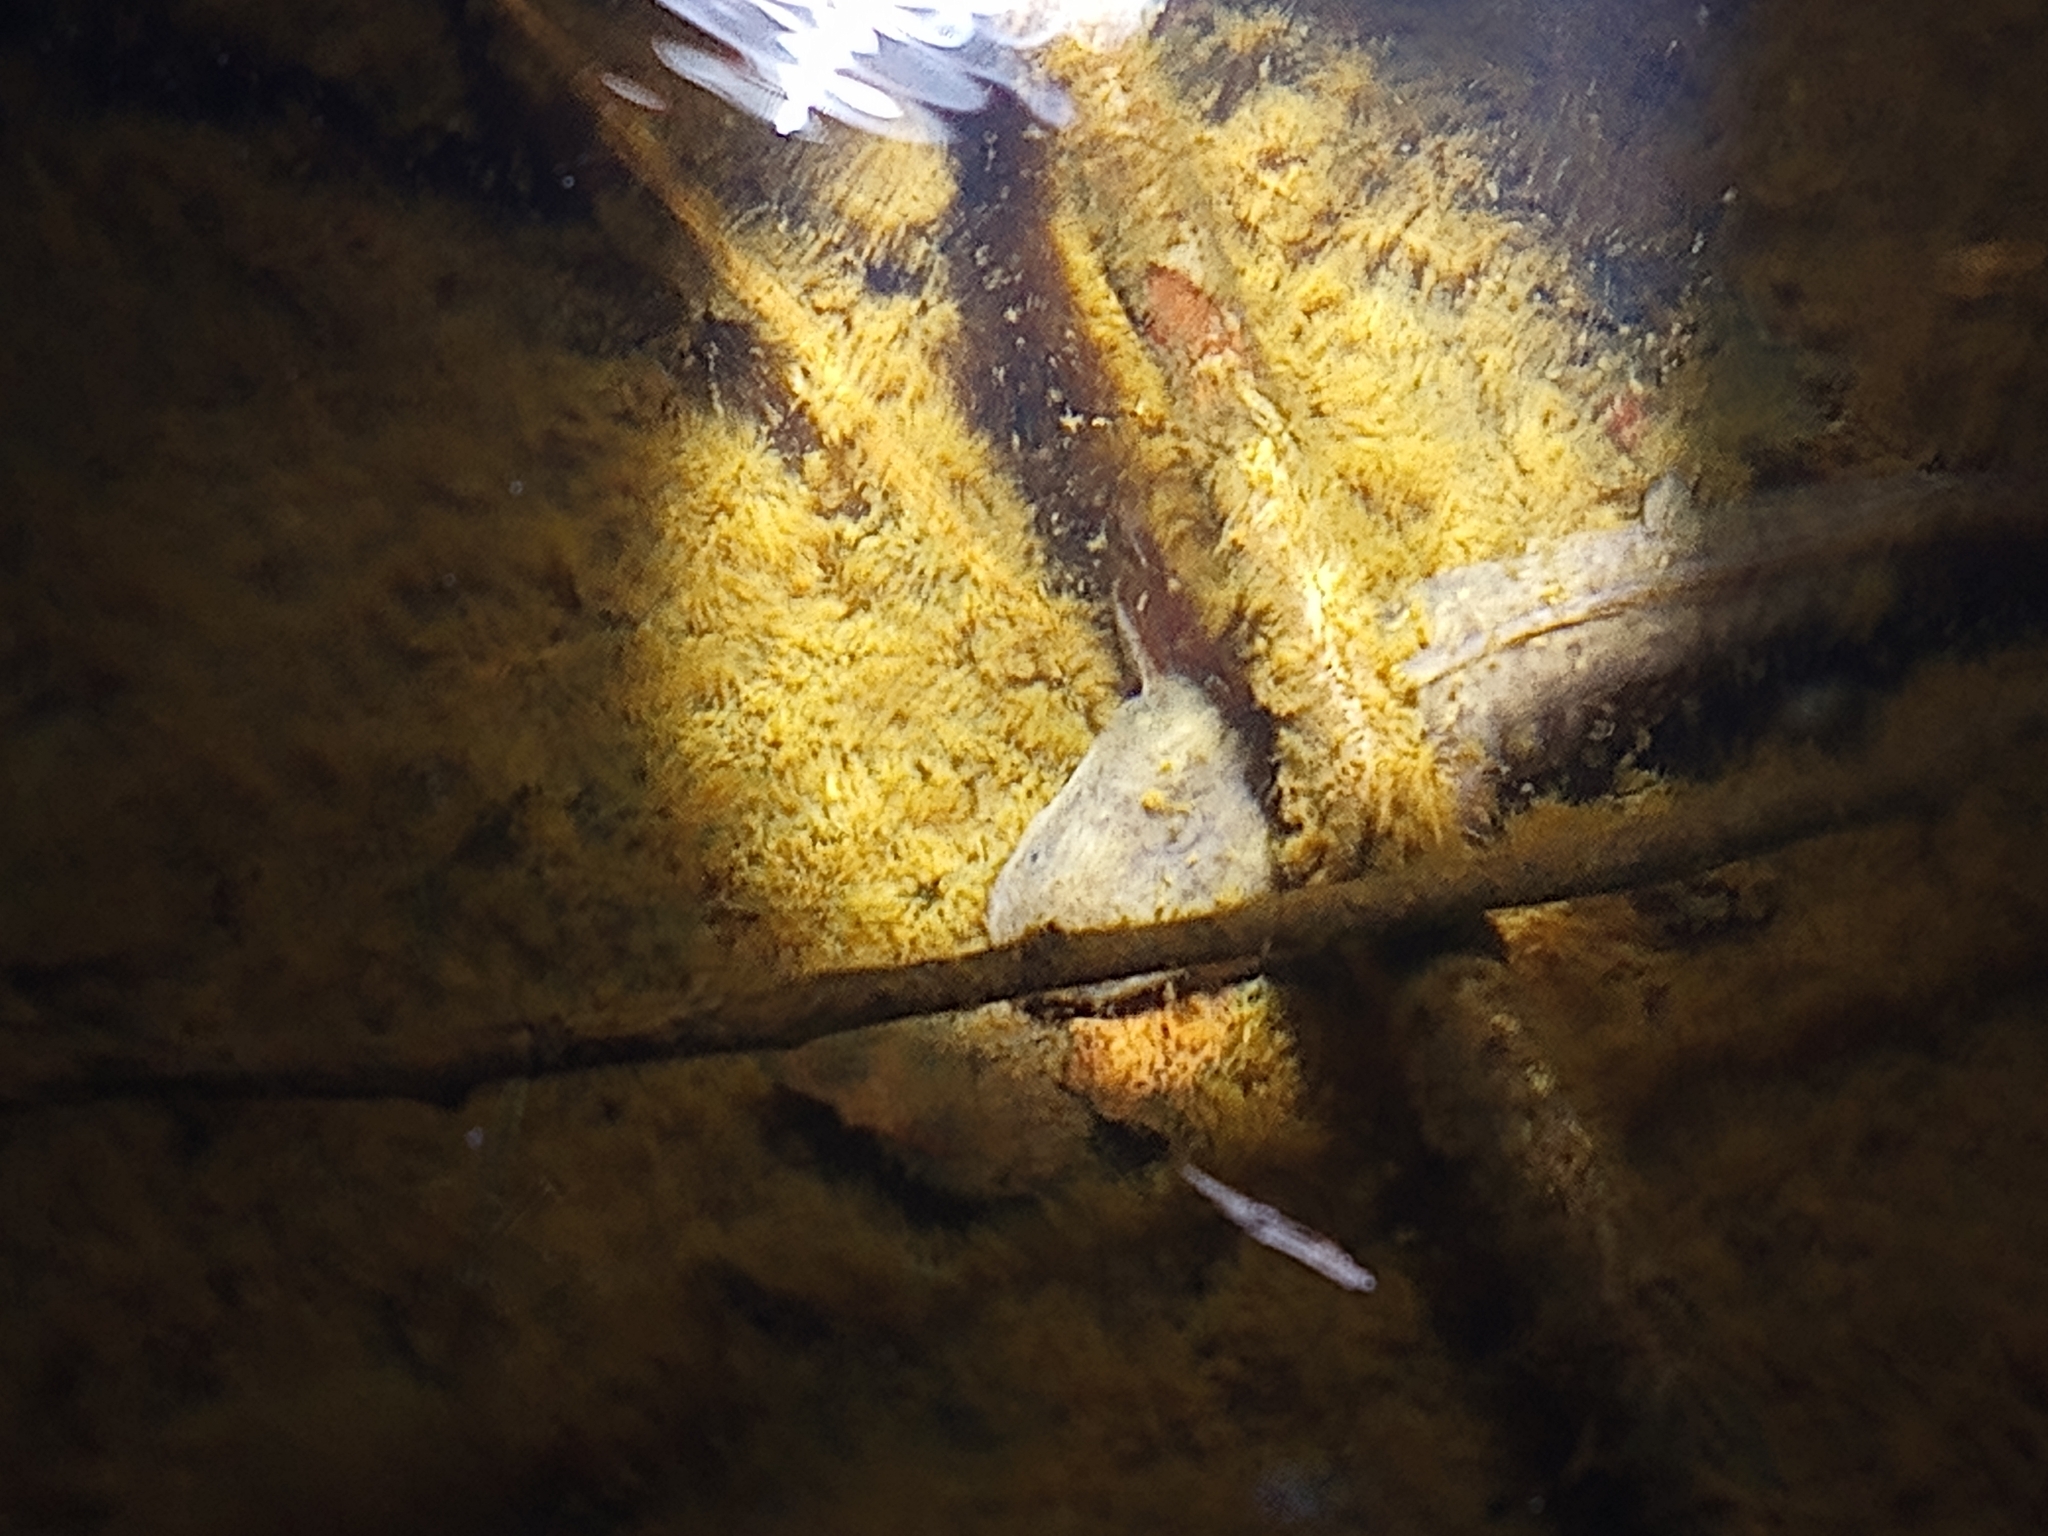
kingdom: Animalia
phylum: Chordata
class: Amphibia
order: Caudata
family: Ambystomatidae
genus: Ambystoma
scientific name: Ambystoma flavipiperatum
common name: Yellow-peppered salamander
